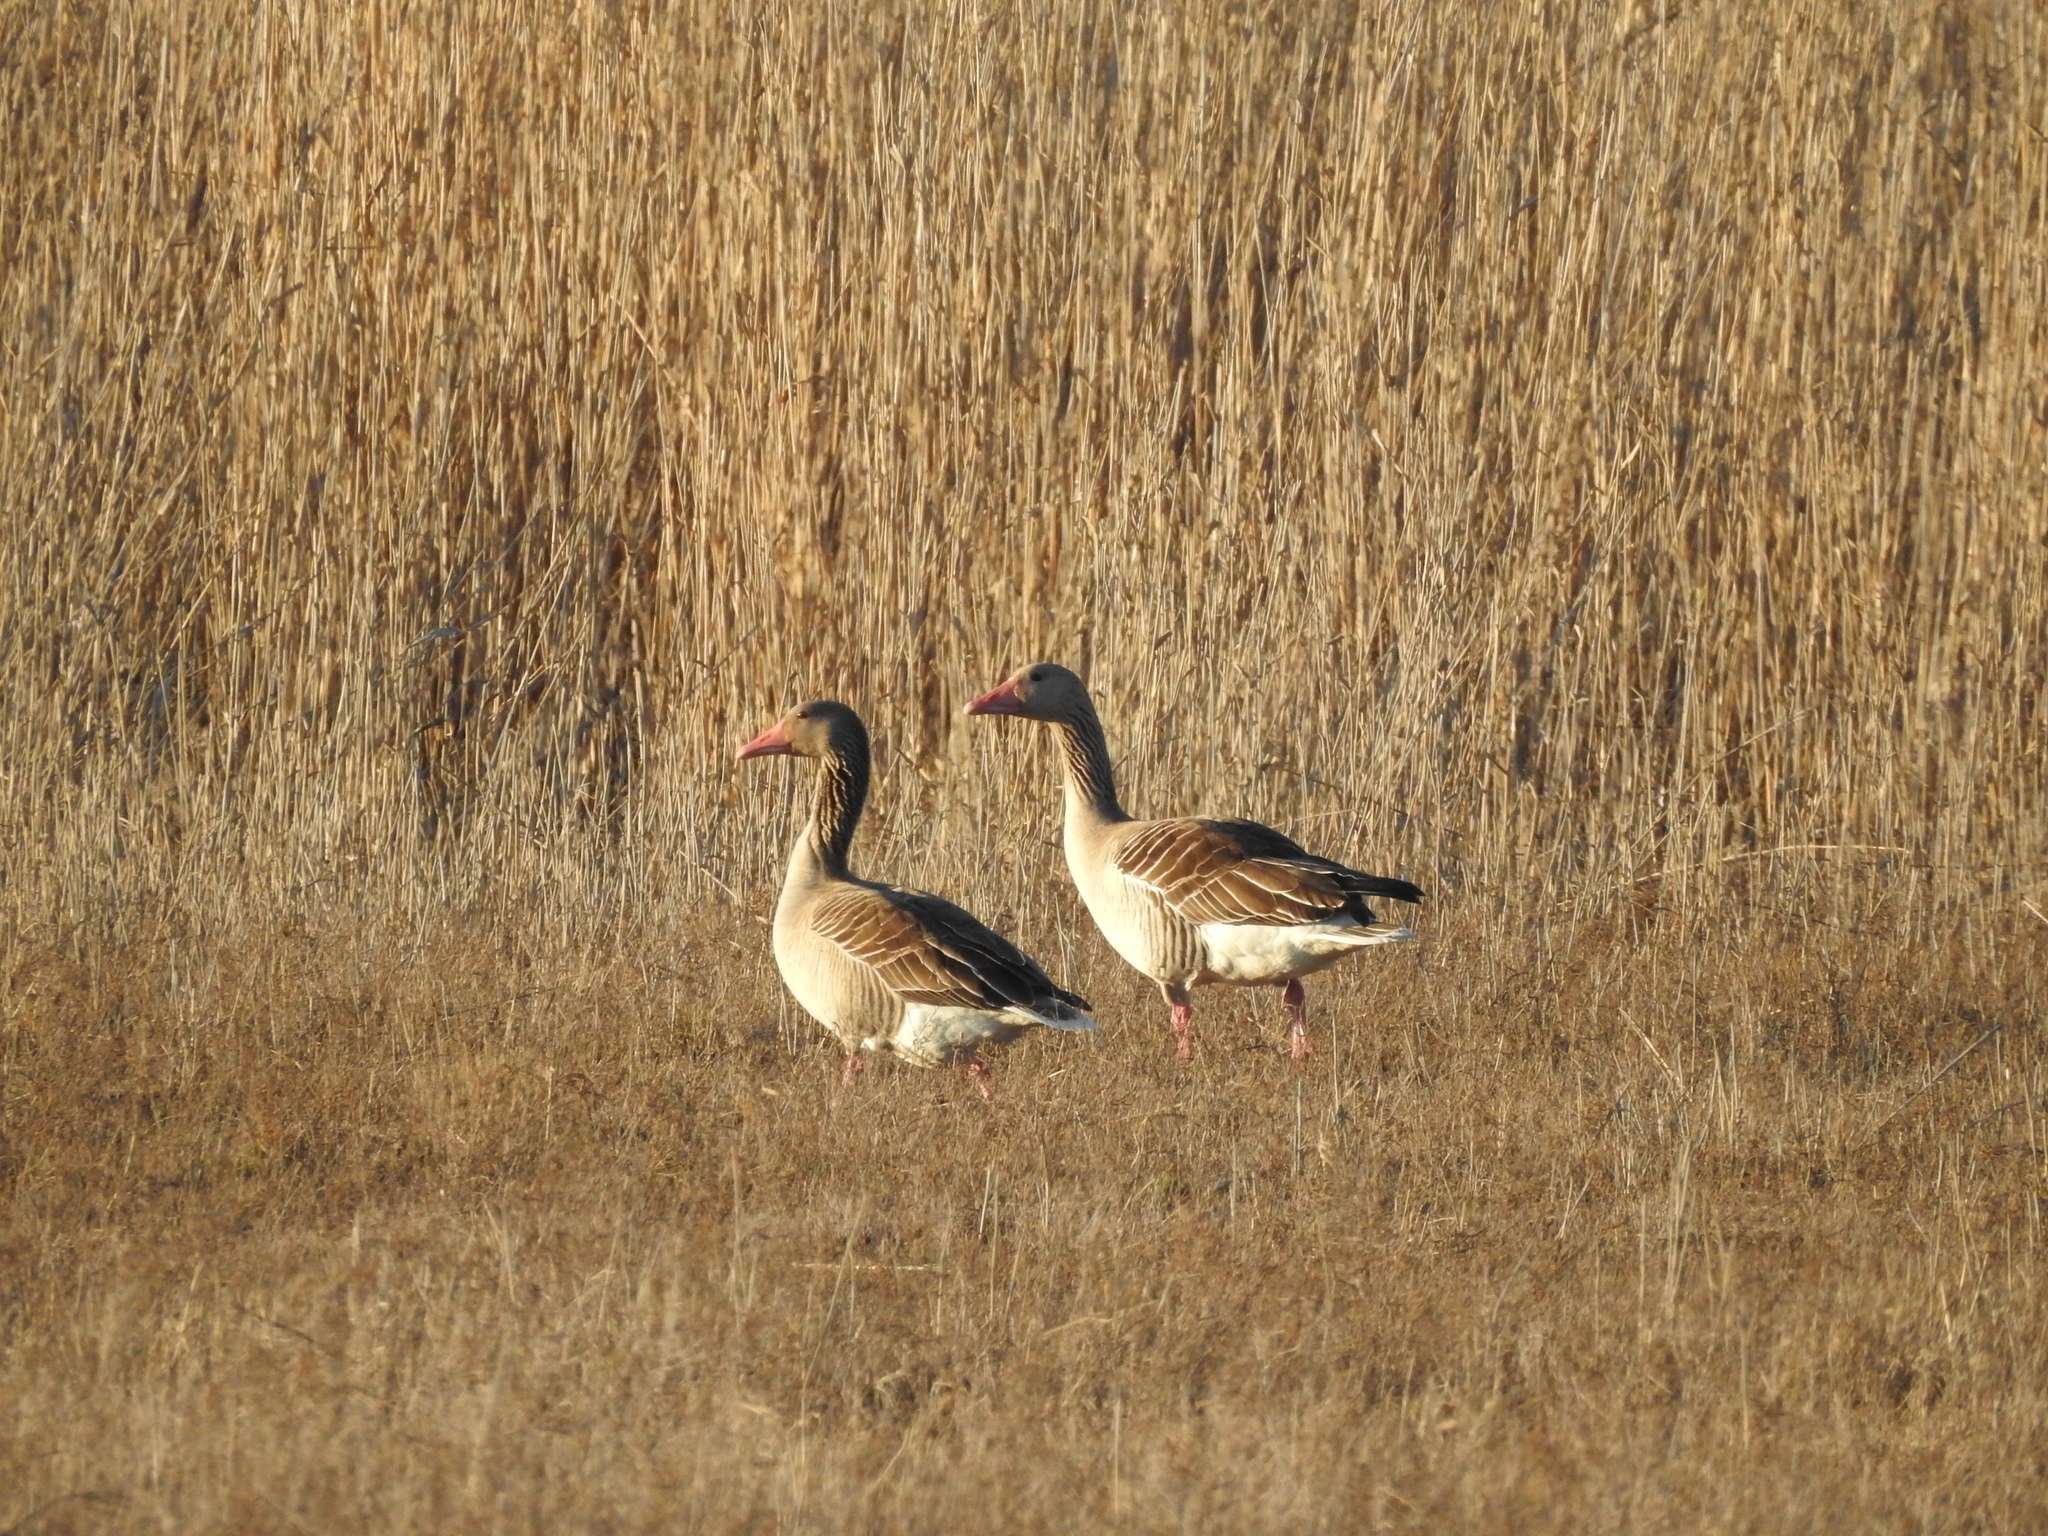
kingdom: Animalia
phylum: Chordata
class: Aves
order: Anseriformes
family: Anatidae
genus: Anser
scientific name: Anser anser
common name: Greylag goose
